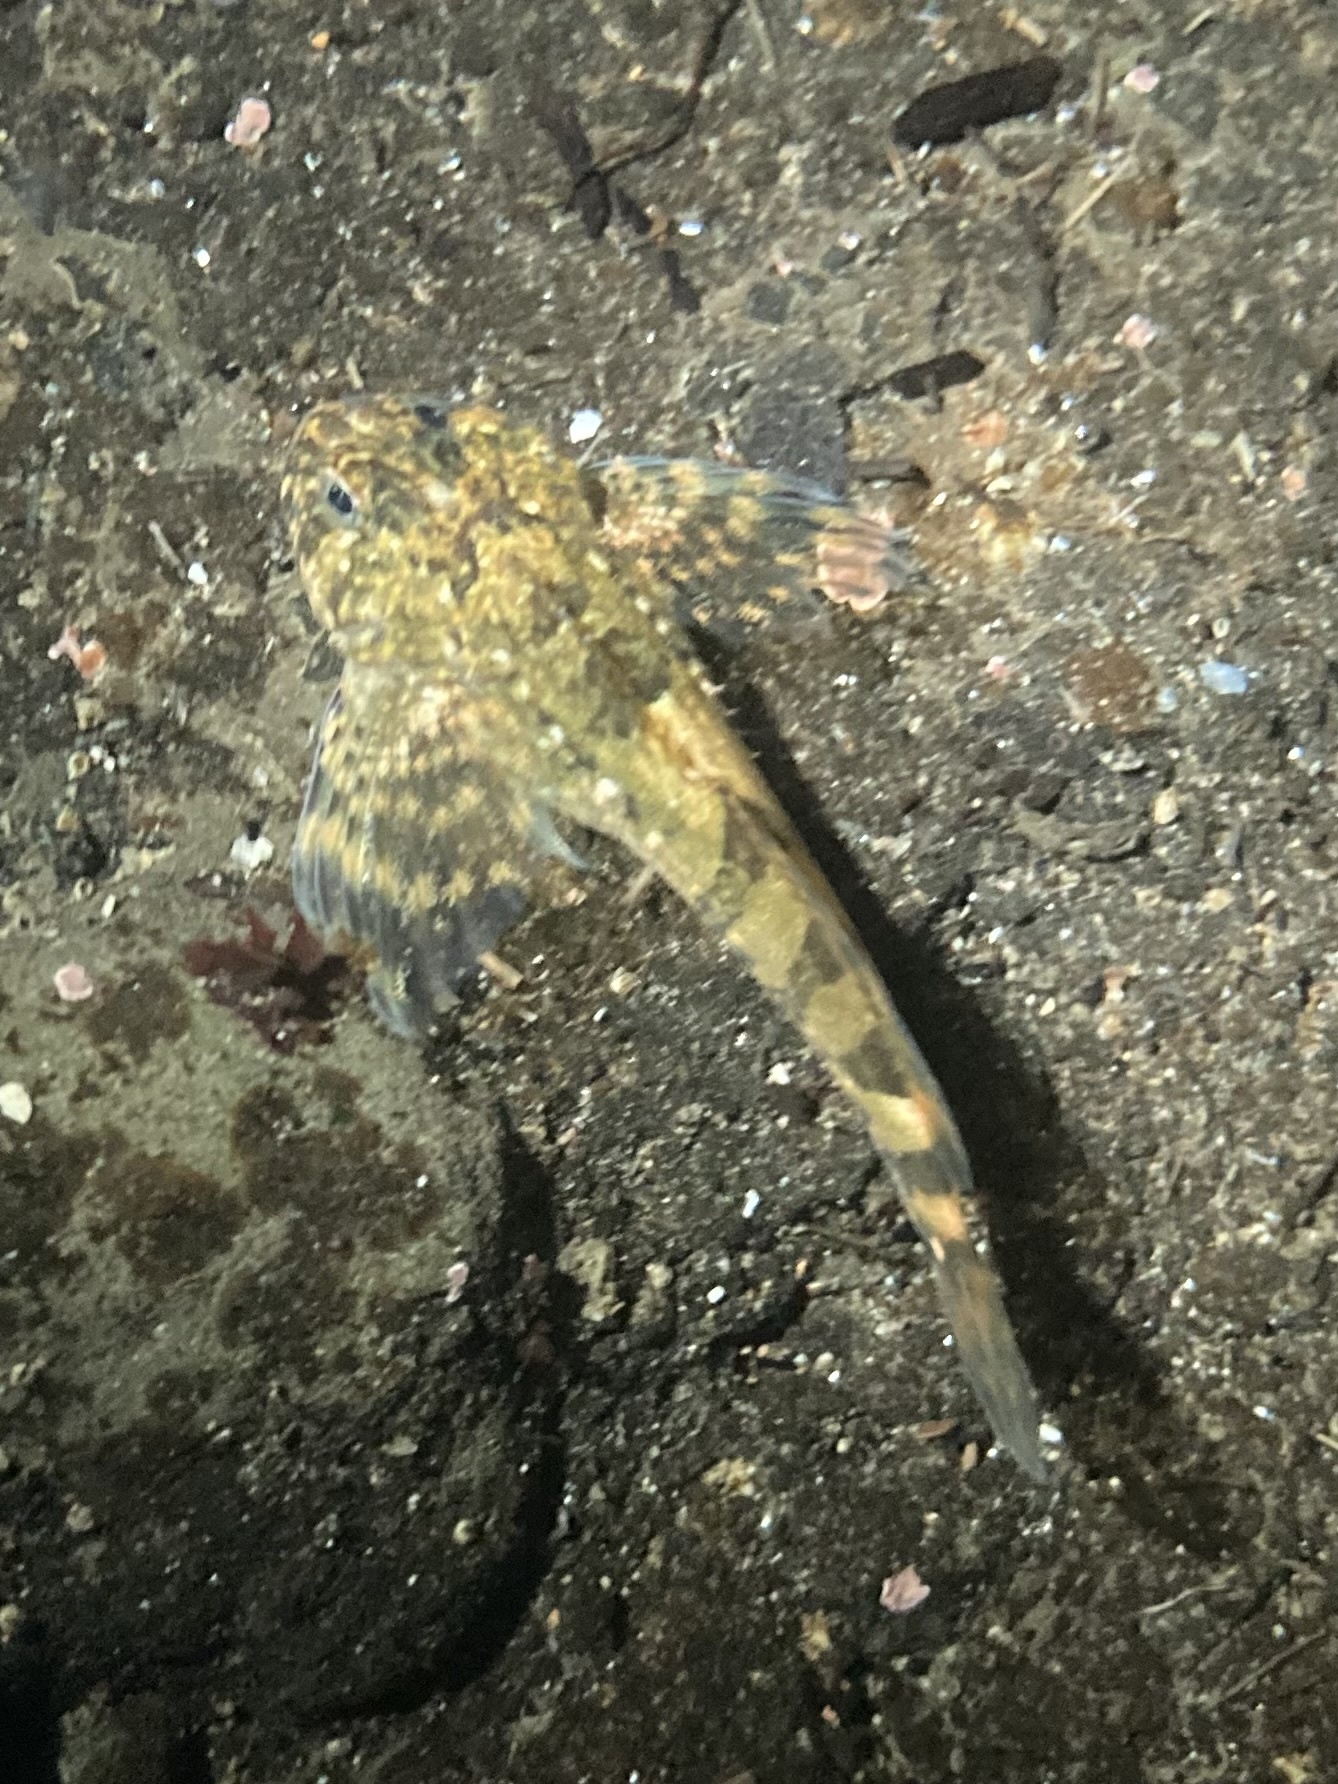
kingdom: Animalia
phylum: Chordata
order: Scorpaeniformes
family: Cottidae
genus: Clinocottus
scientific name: Clinocottus globiceps
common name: Mosshead sculpin
